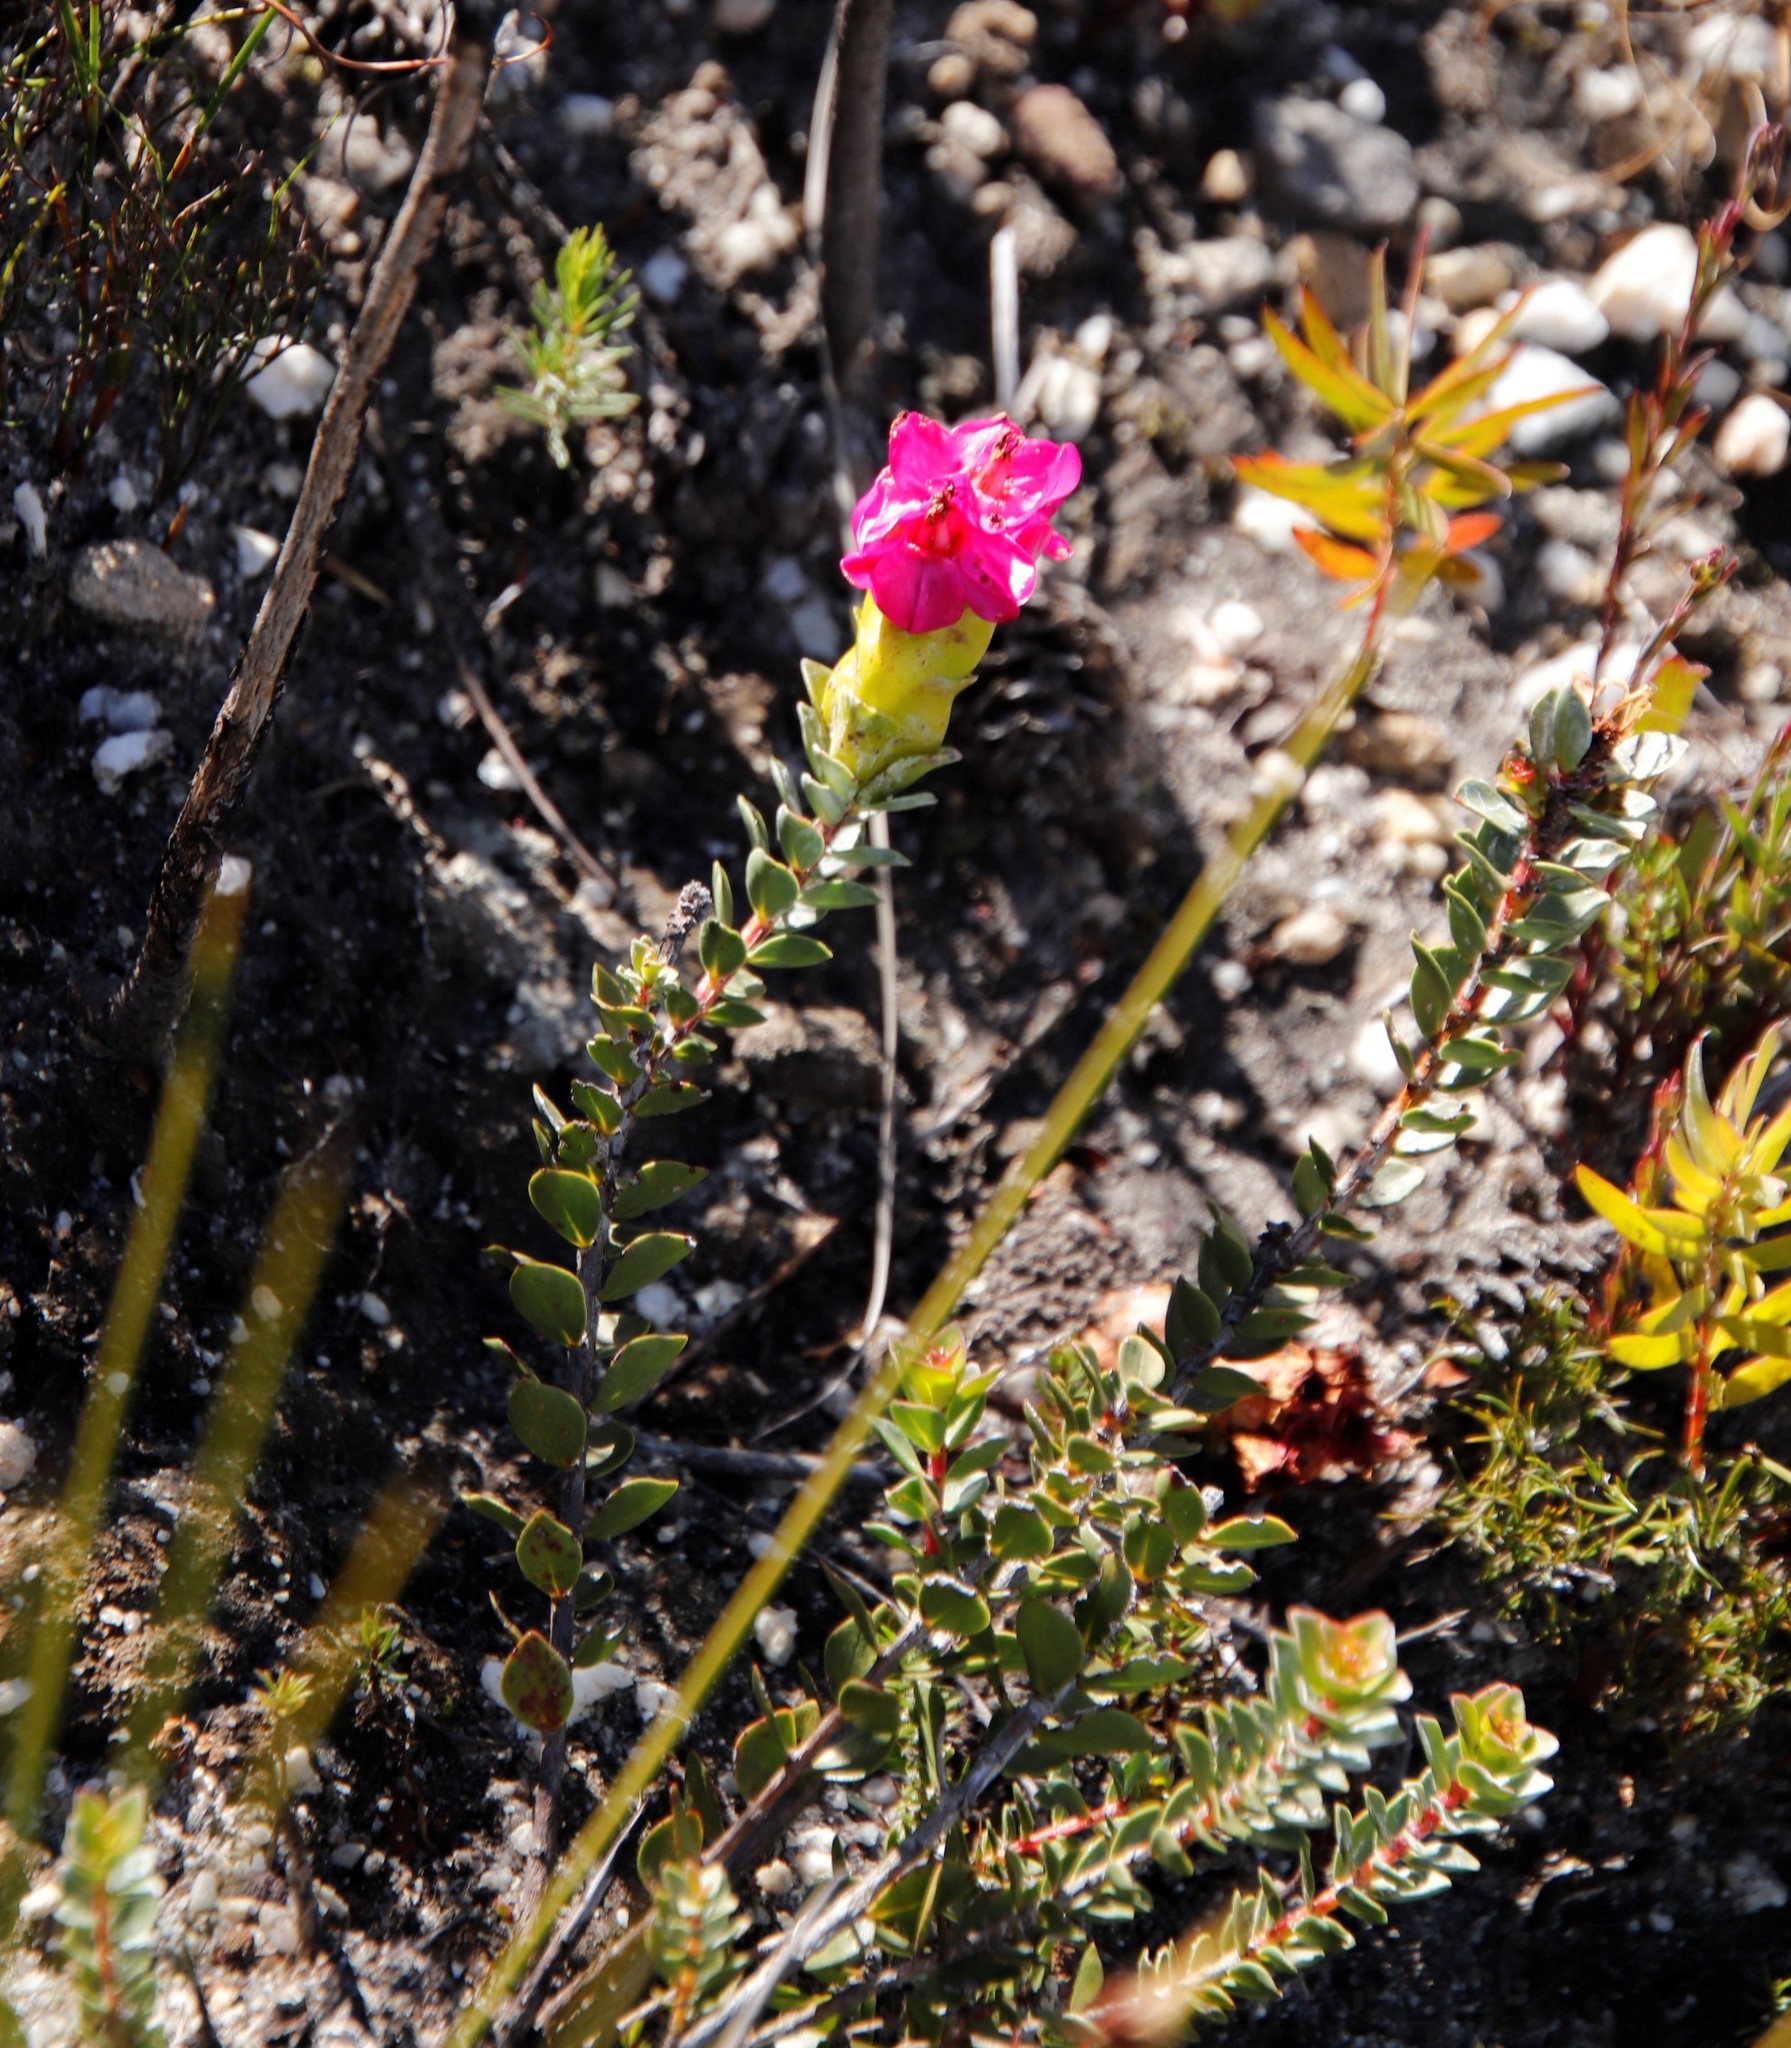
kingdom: Plantae
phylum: Tracheophyta
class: Magnoliopsida
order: Myrtales
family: Penaeaceae
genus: Saltera
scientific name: Saltera sarcocolla
